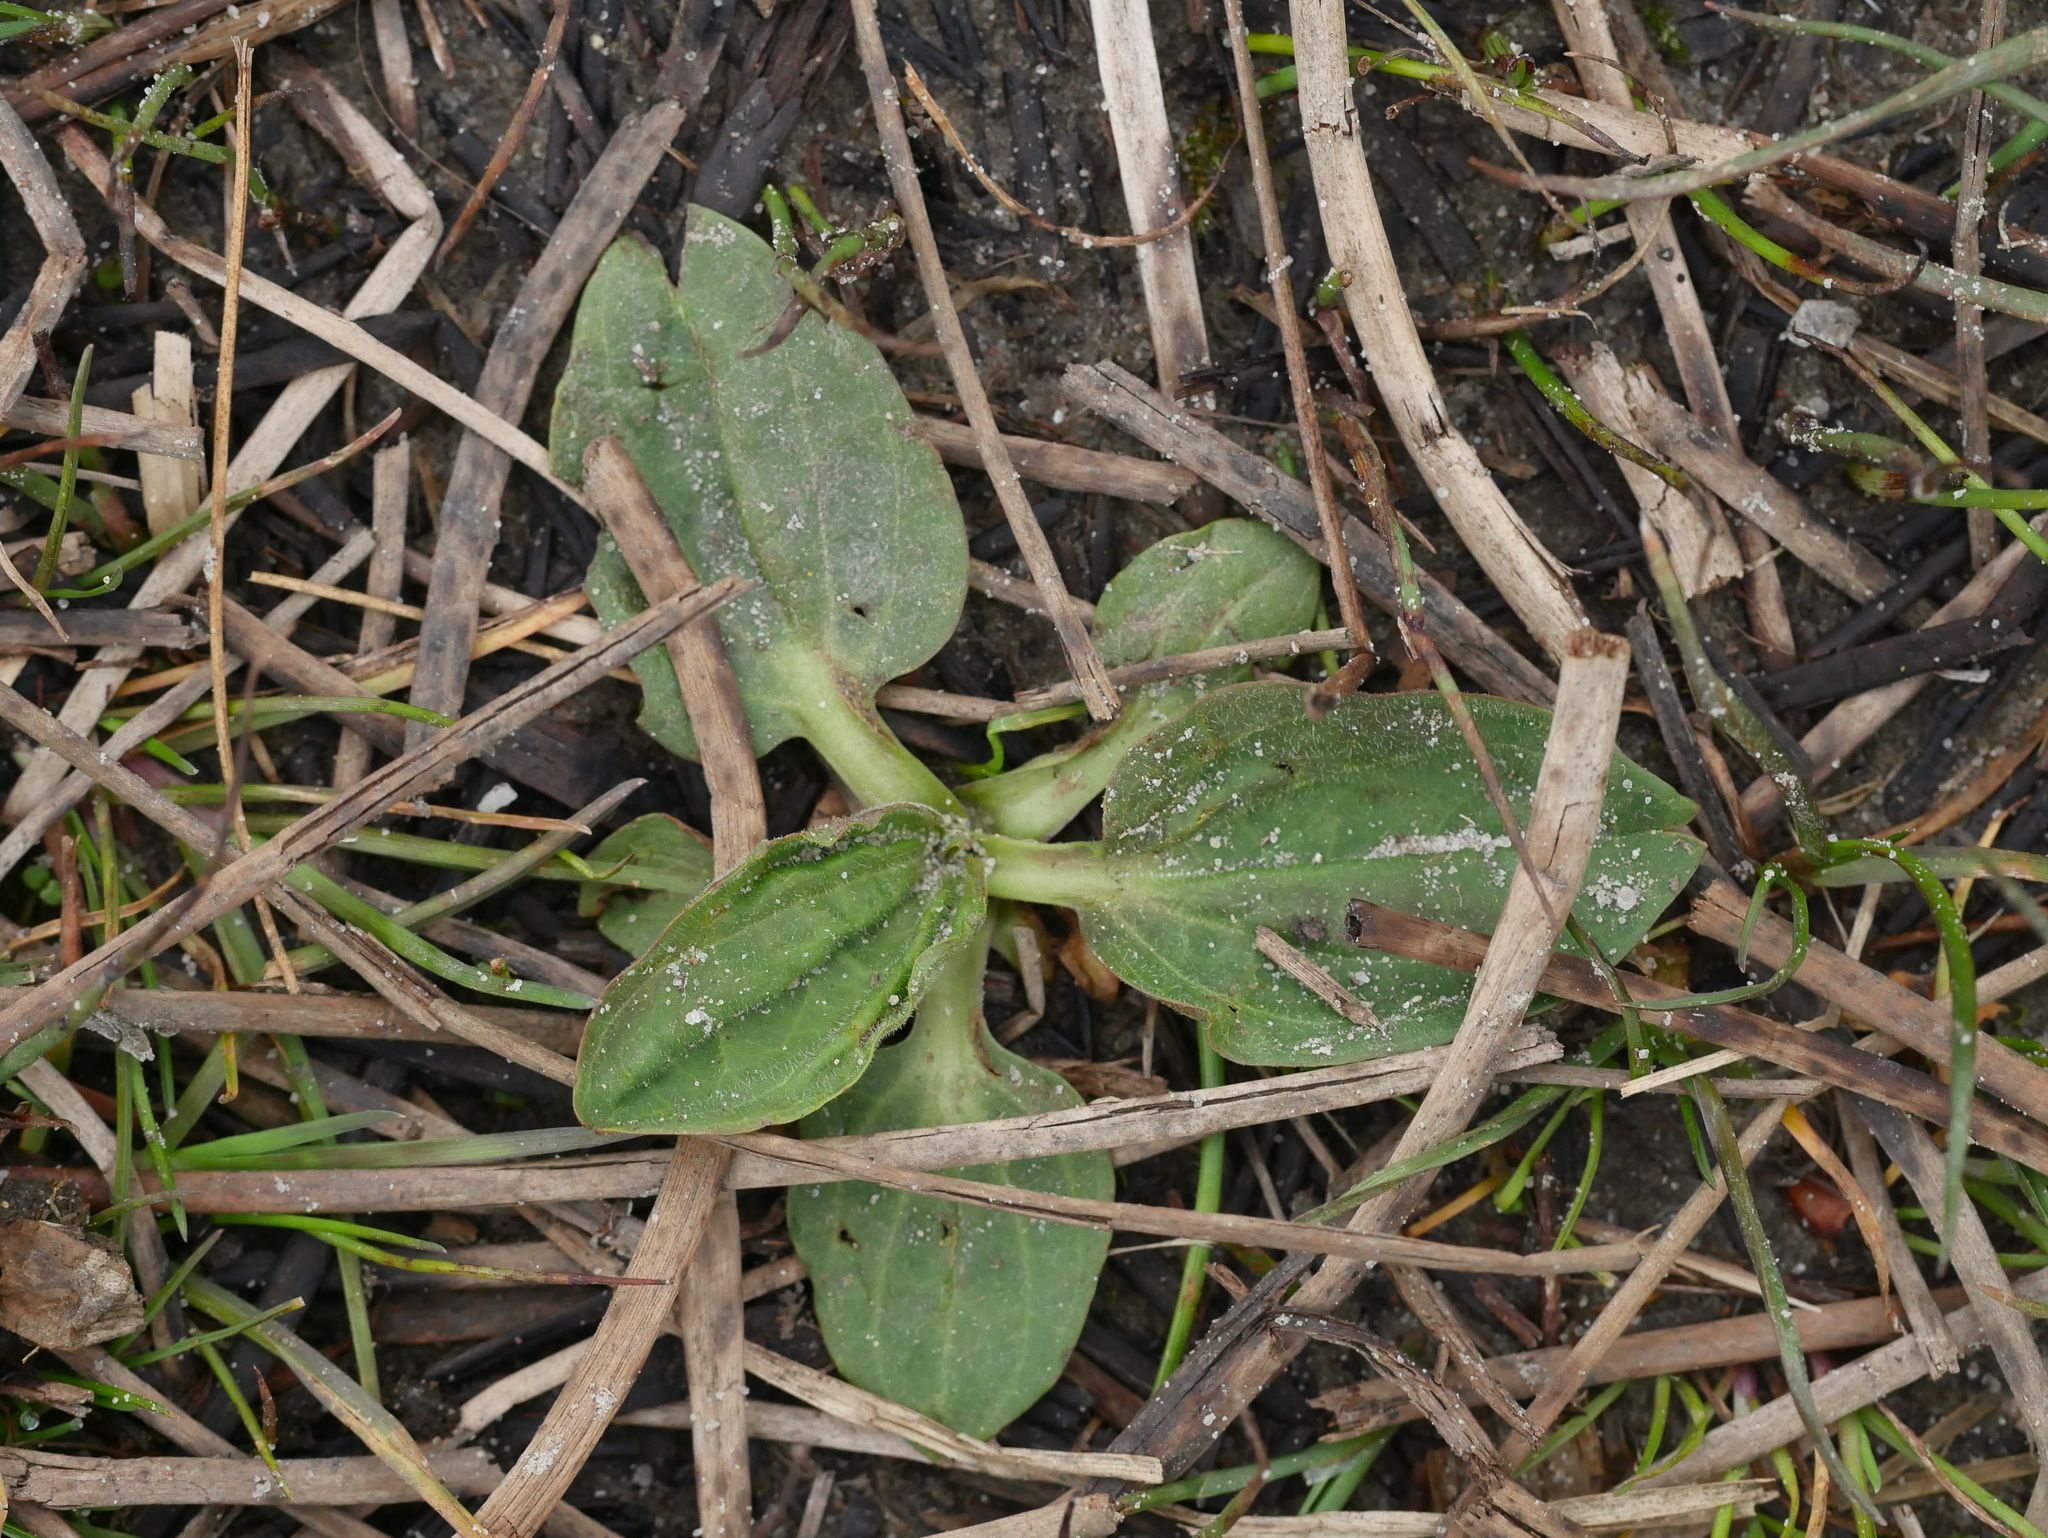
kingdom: Plantae
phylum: Tracheophyta
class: Magnoliopsida
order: Lamiales
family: Plantaginaceae
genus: Plantago
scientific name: Plantago major
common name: Common plantain
